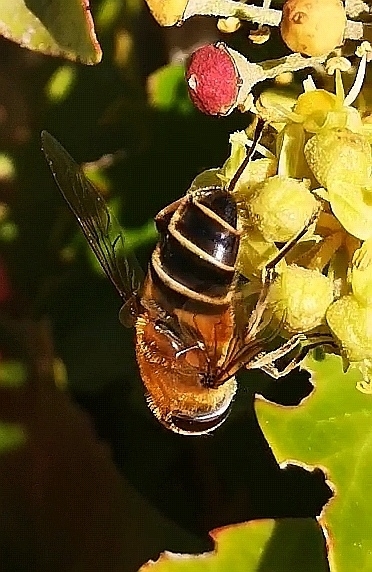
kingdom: Animalia
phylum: Arthropoda
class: Insecta
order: Diptera
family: Syrphidae
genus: Eristalis
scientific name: Eristalis pertinax
